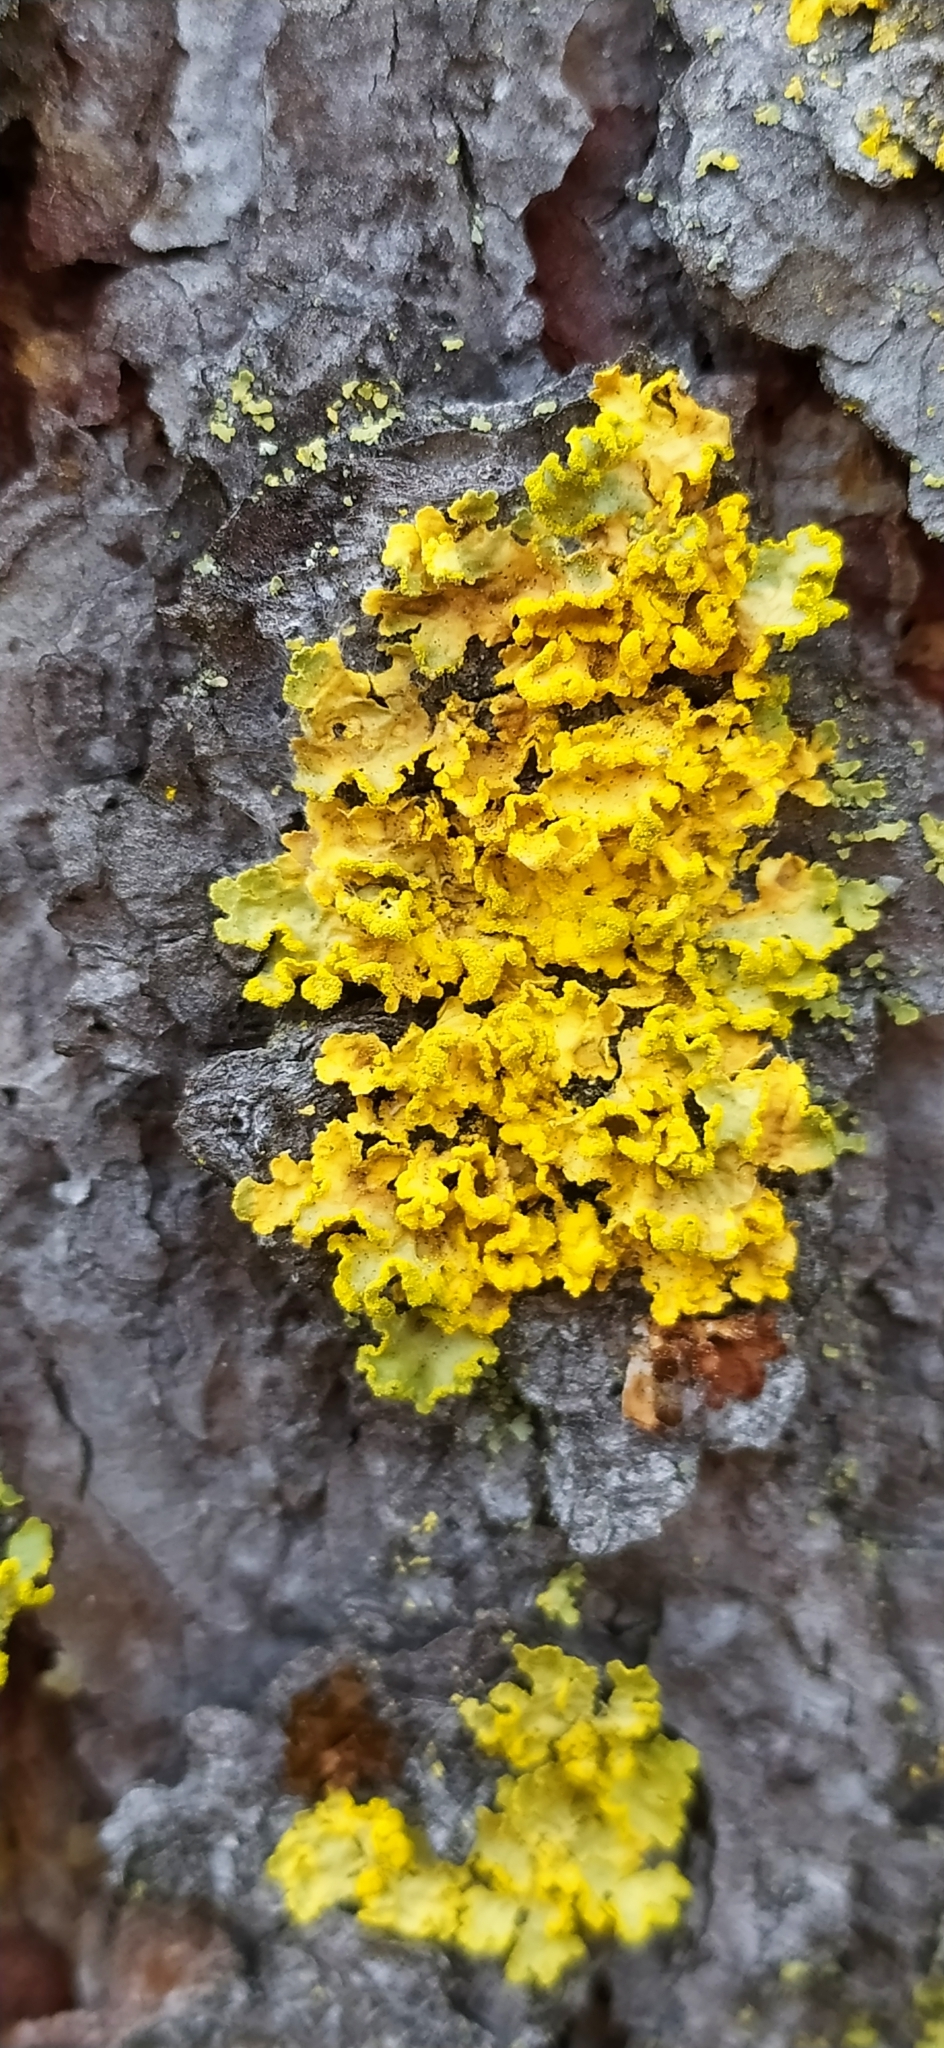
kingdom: Fungi
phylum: Ascomycota
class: Lecanoromycetes
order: Lecanorales
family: Parmeliaceae
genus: Vulpicida
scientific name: Vulpicida pinastri
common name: Powdered sunshine lichen
